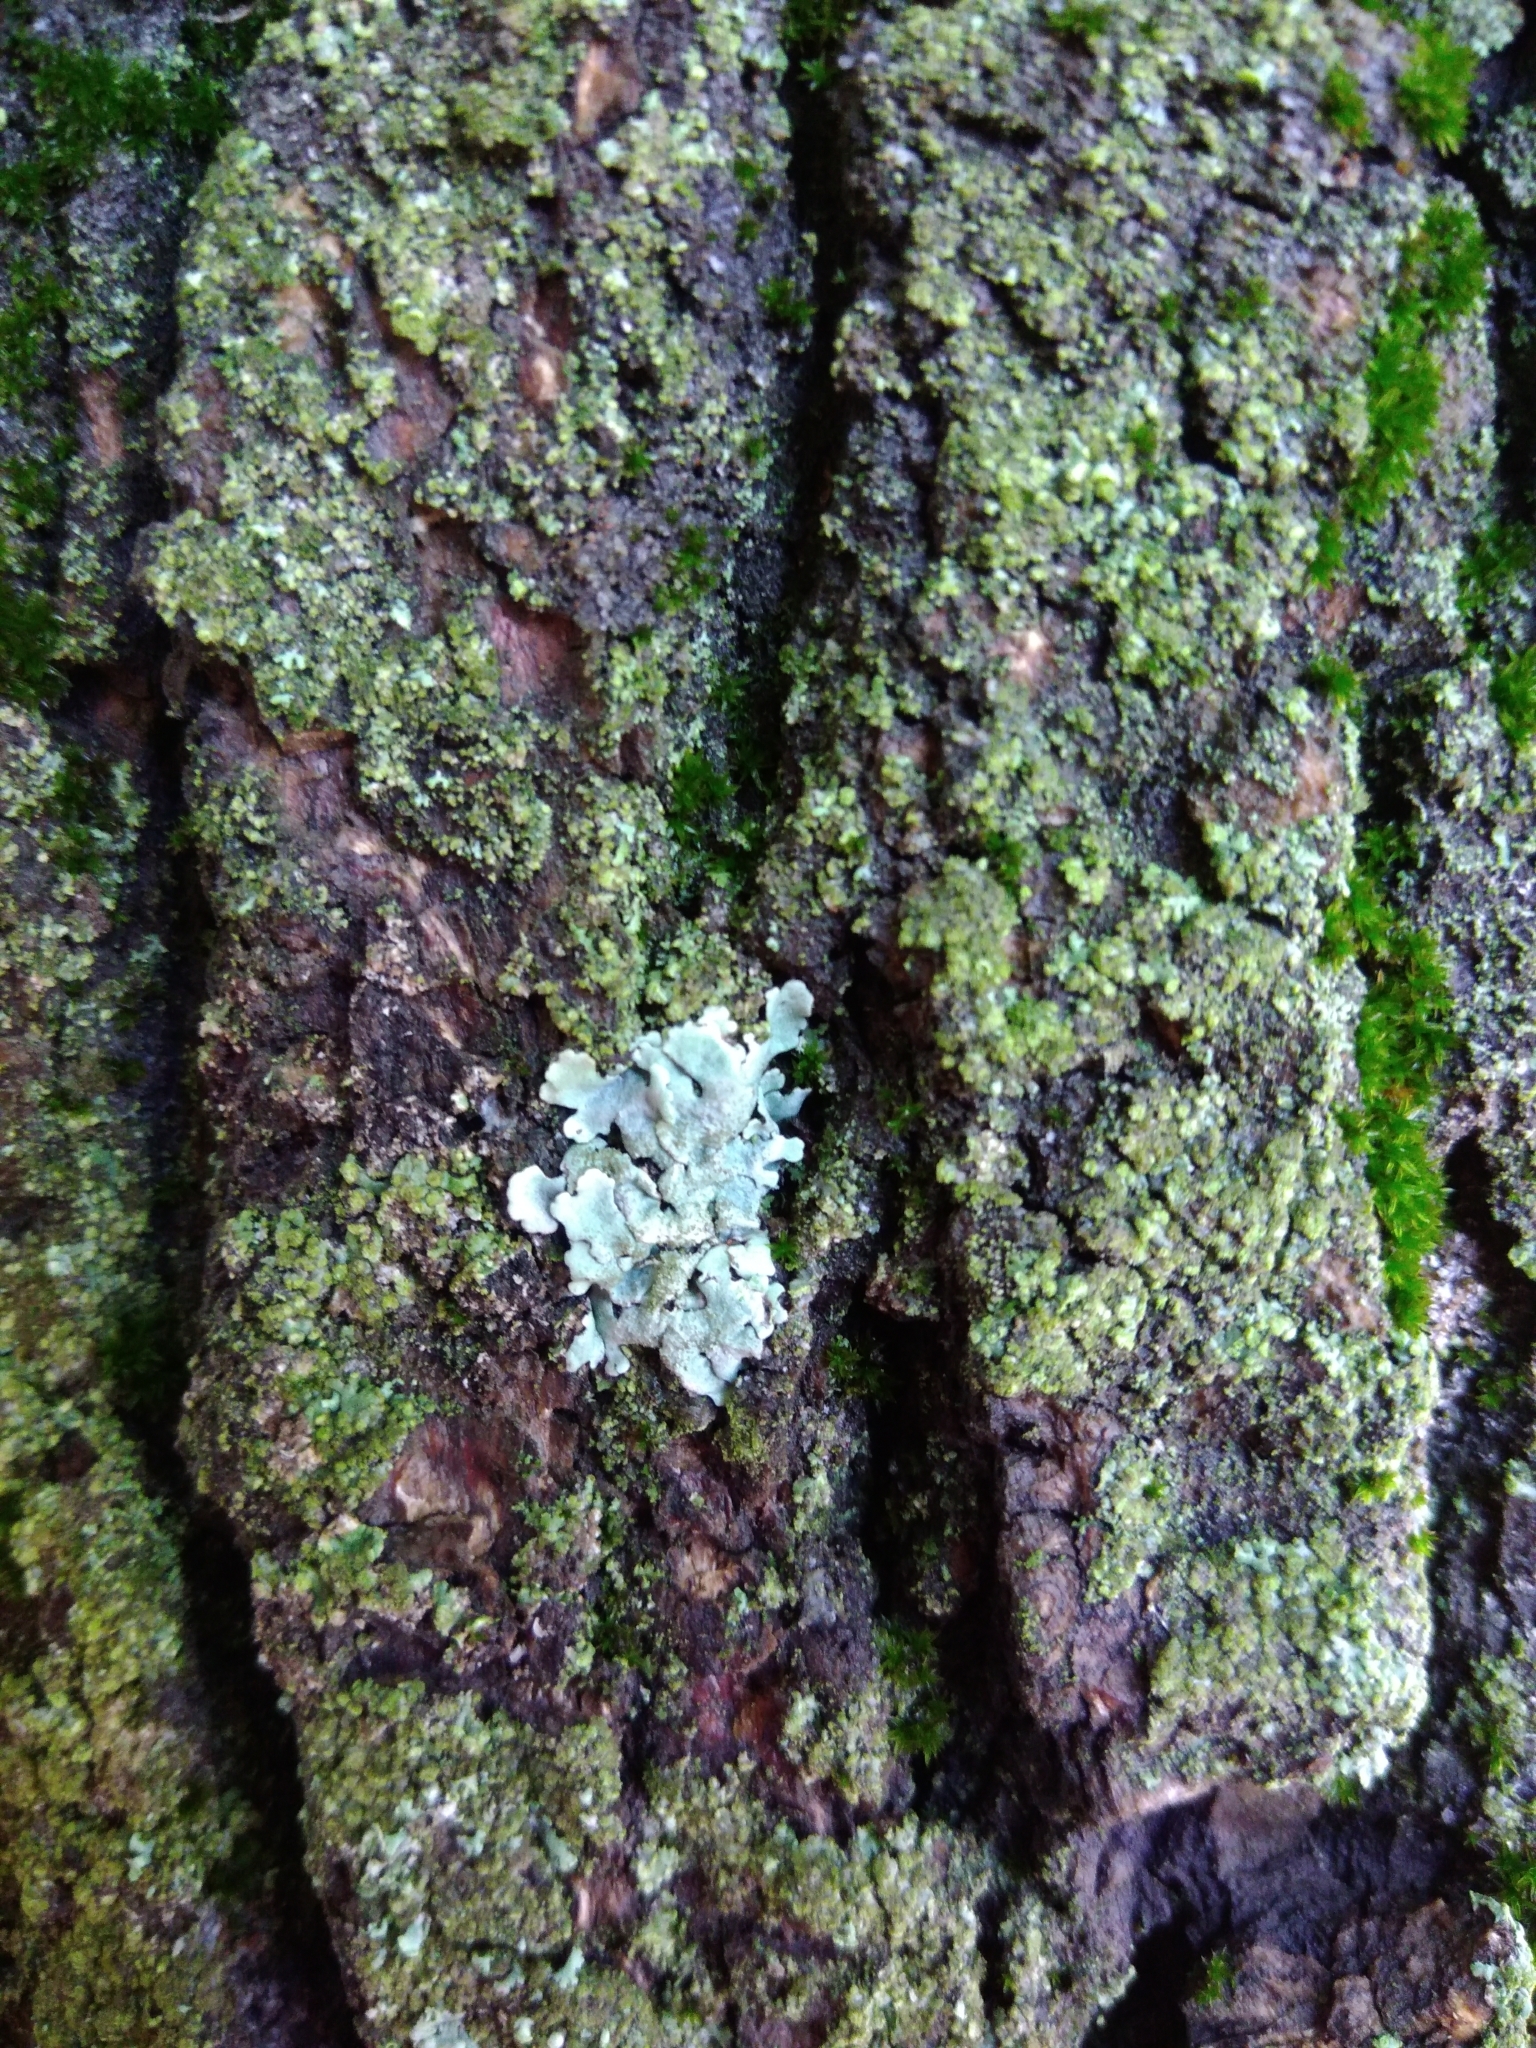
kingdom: Fungi
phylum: Ascomycota
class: Lecanoromycetes
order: Lecanorales
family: Parmeliaceae
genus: Parmelina
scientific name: Parmelina tiliacea
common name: Linden shield lichen
